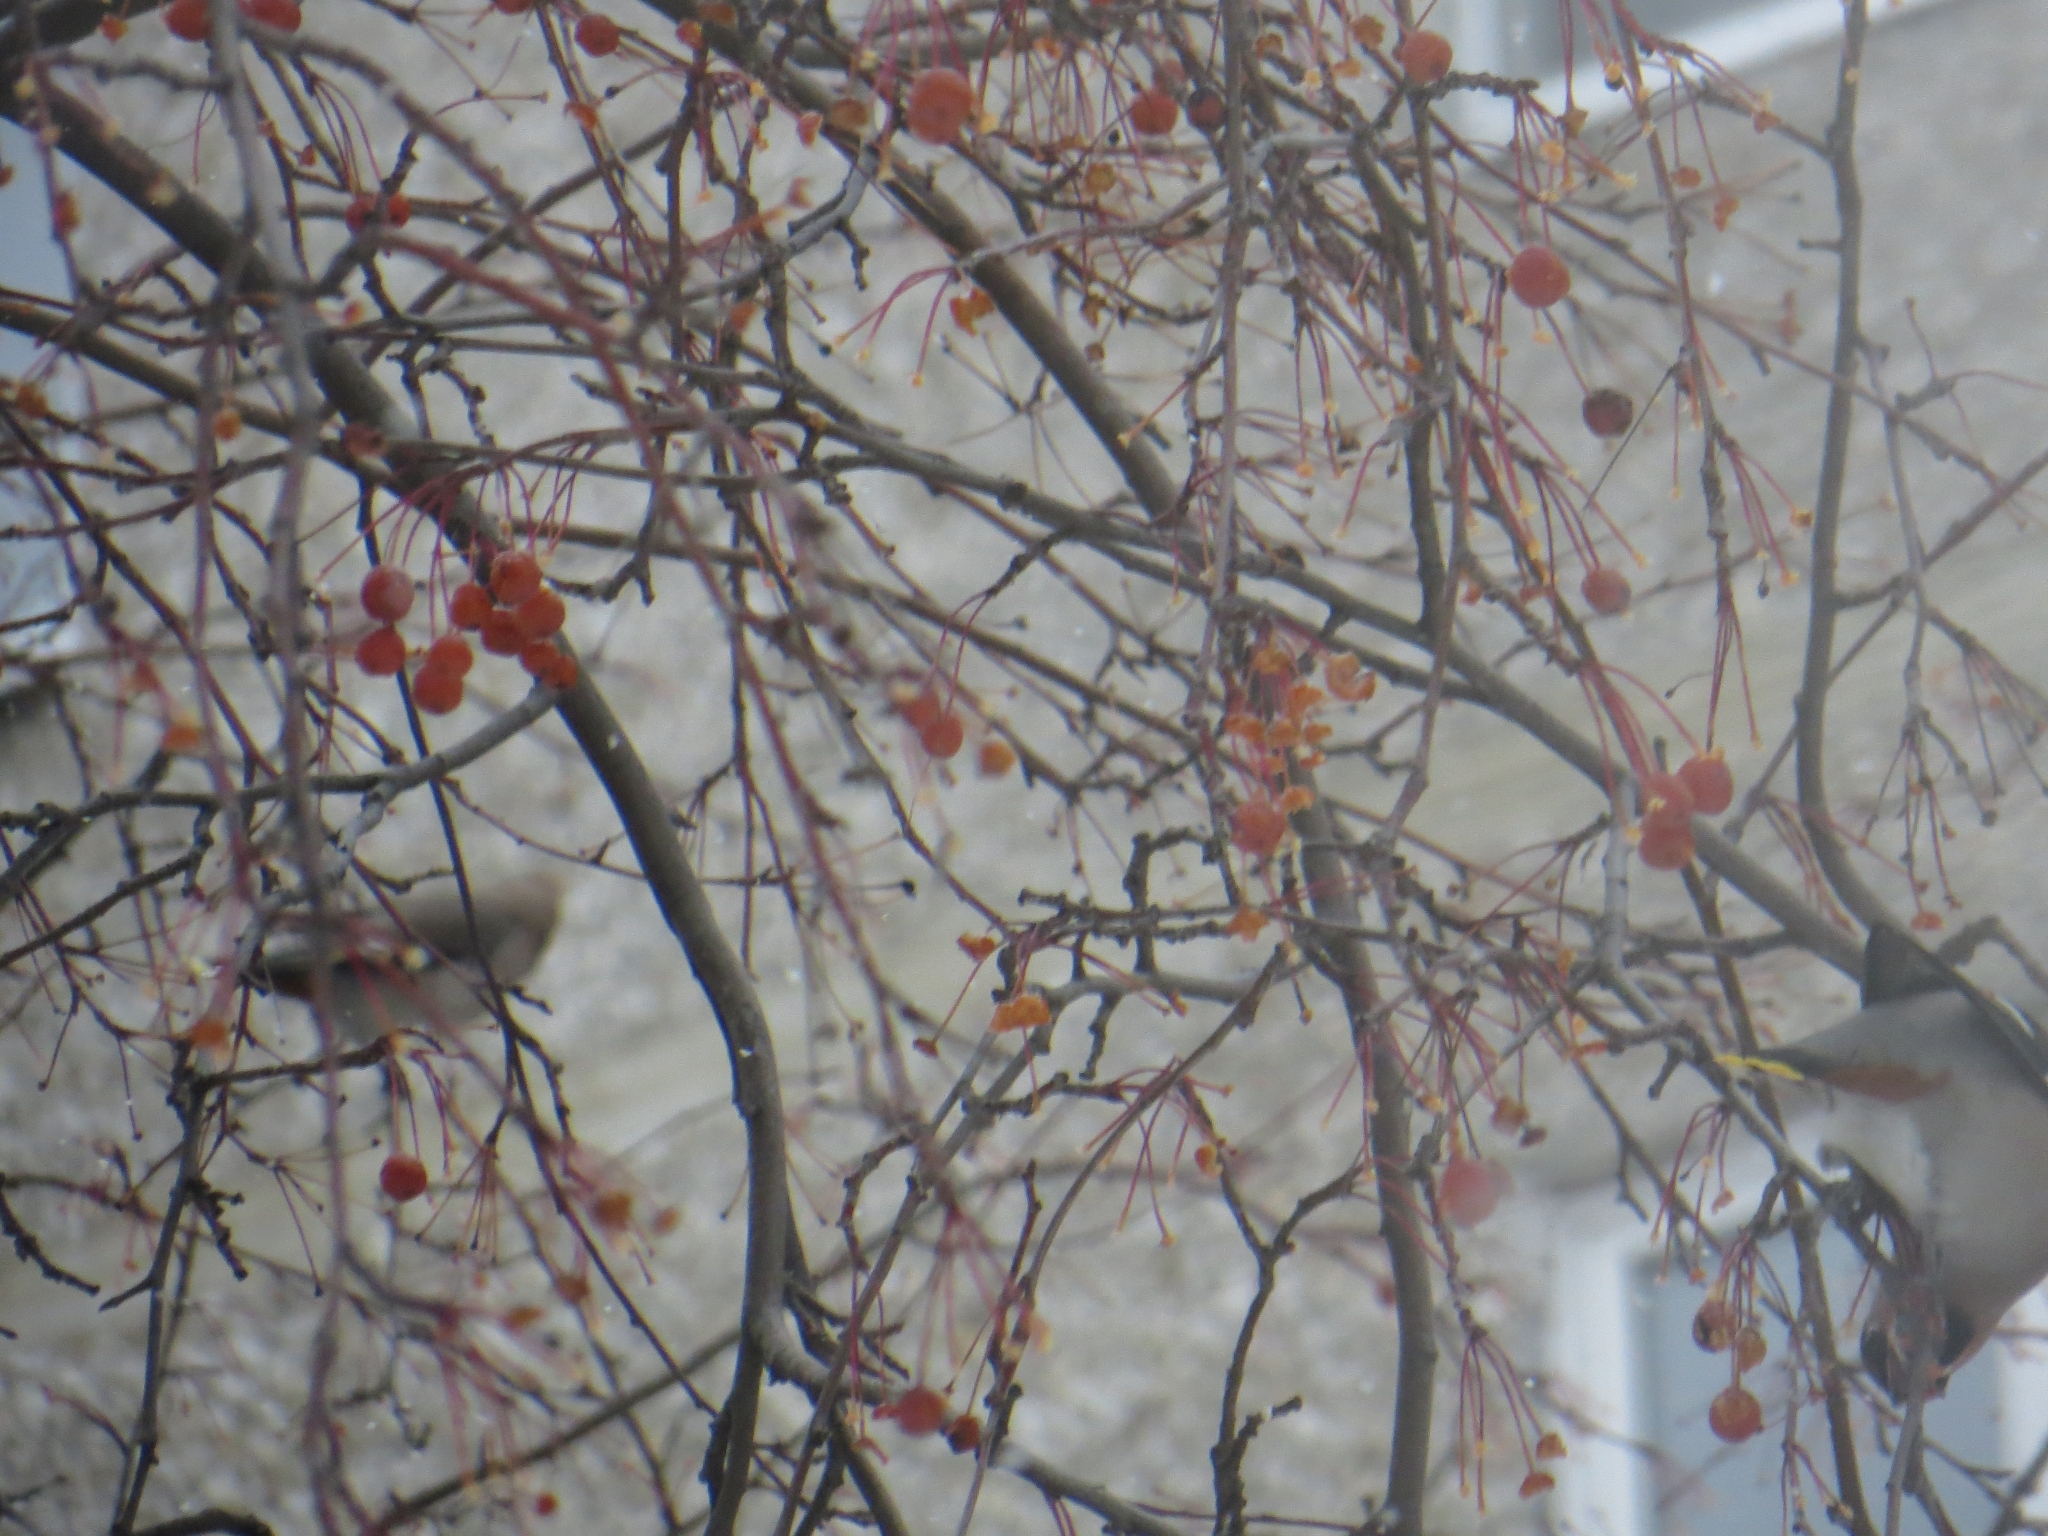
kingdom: Animalia
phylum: Chordata
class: Aves
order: Passeriformes
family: Bombycillidae
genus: Bombycilla
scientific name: Bombycilla garrulus
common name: Bohemian waxwing
